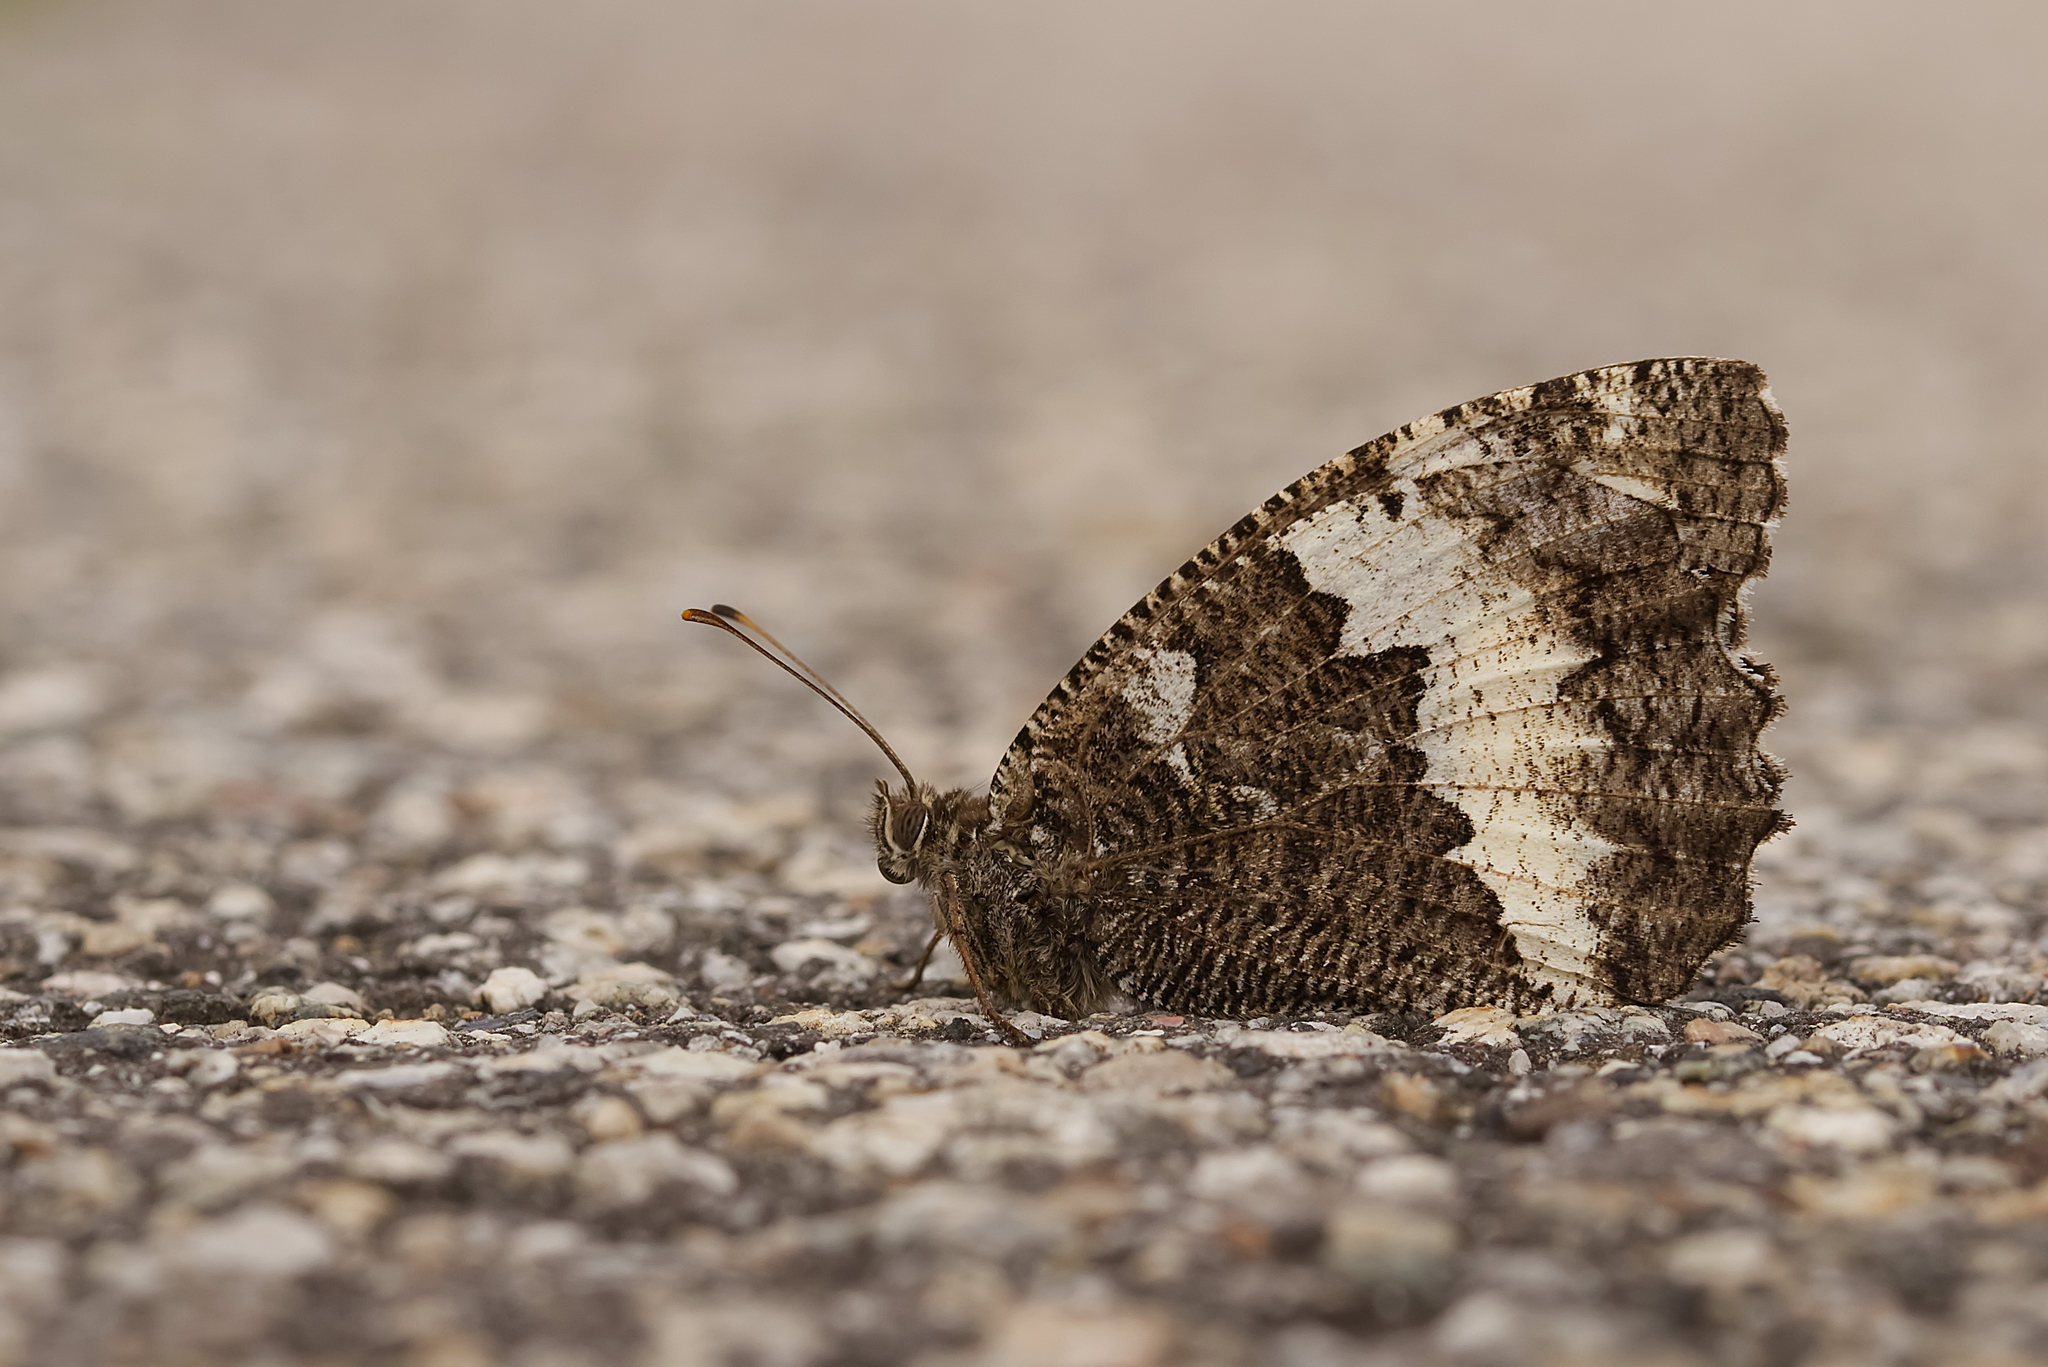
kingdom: Animalia
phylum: Arthropoda
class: Insecta
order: Lepidoptera
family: Lycaenidae
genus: Loweia
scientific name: Loweia tityrus
